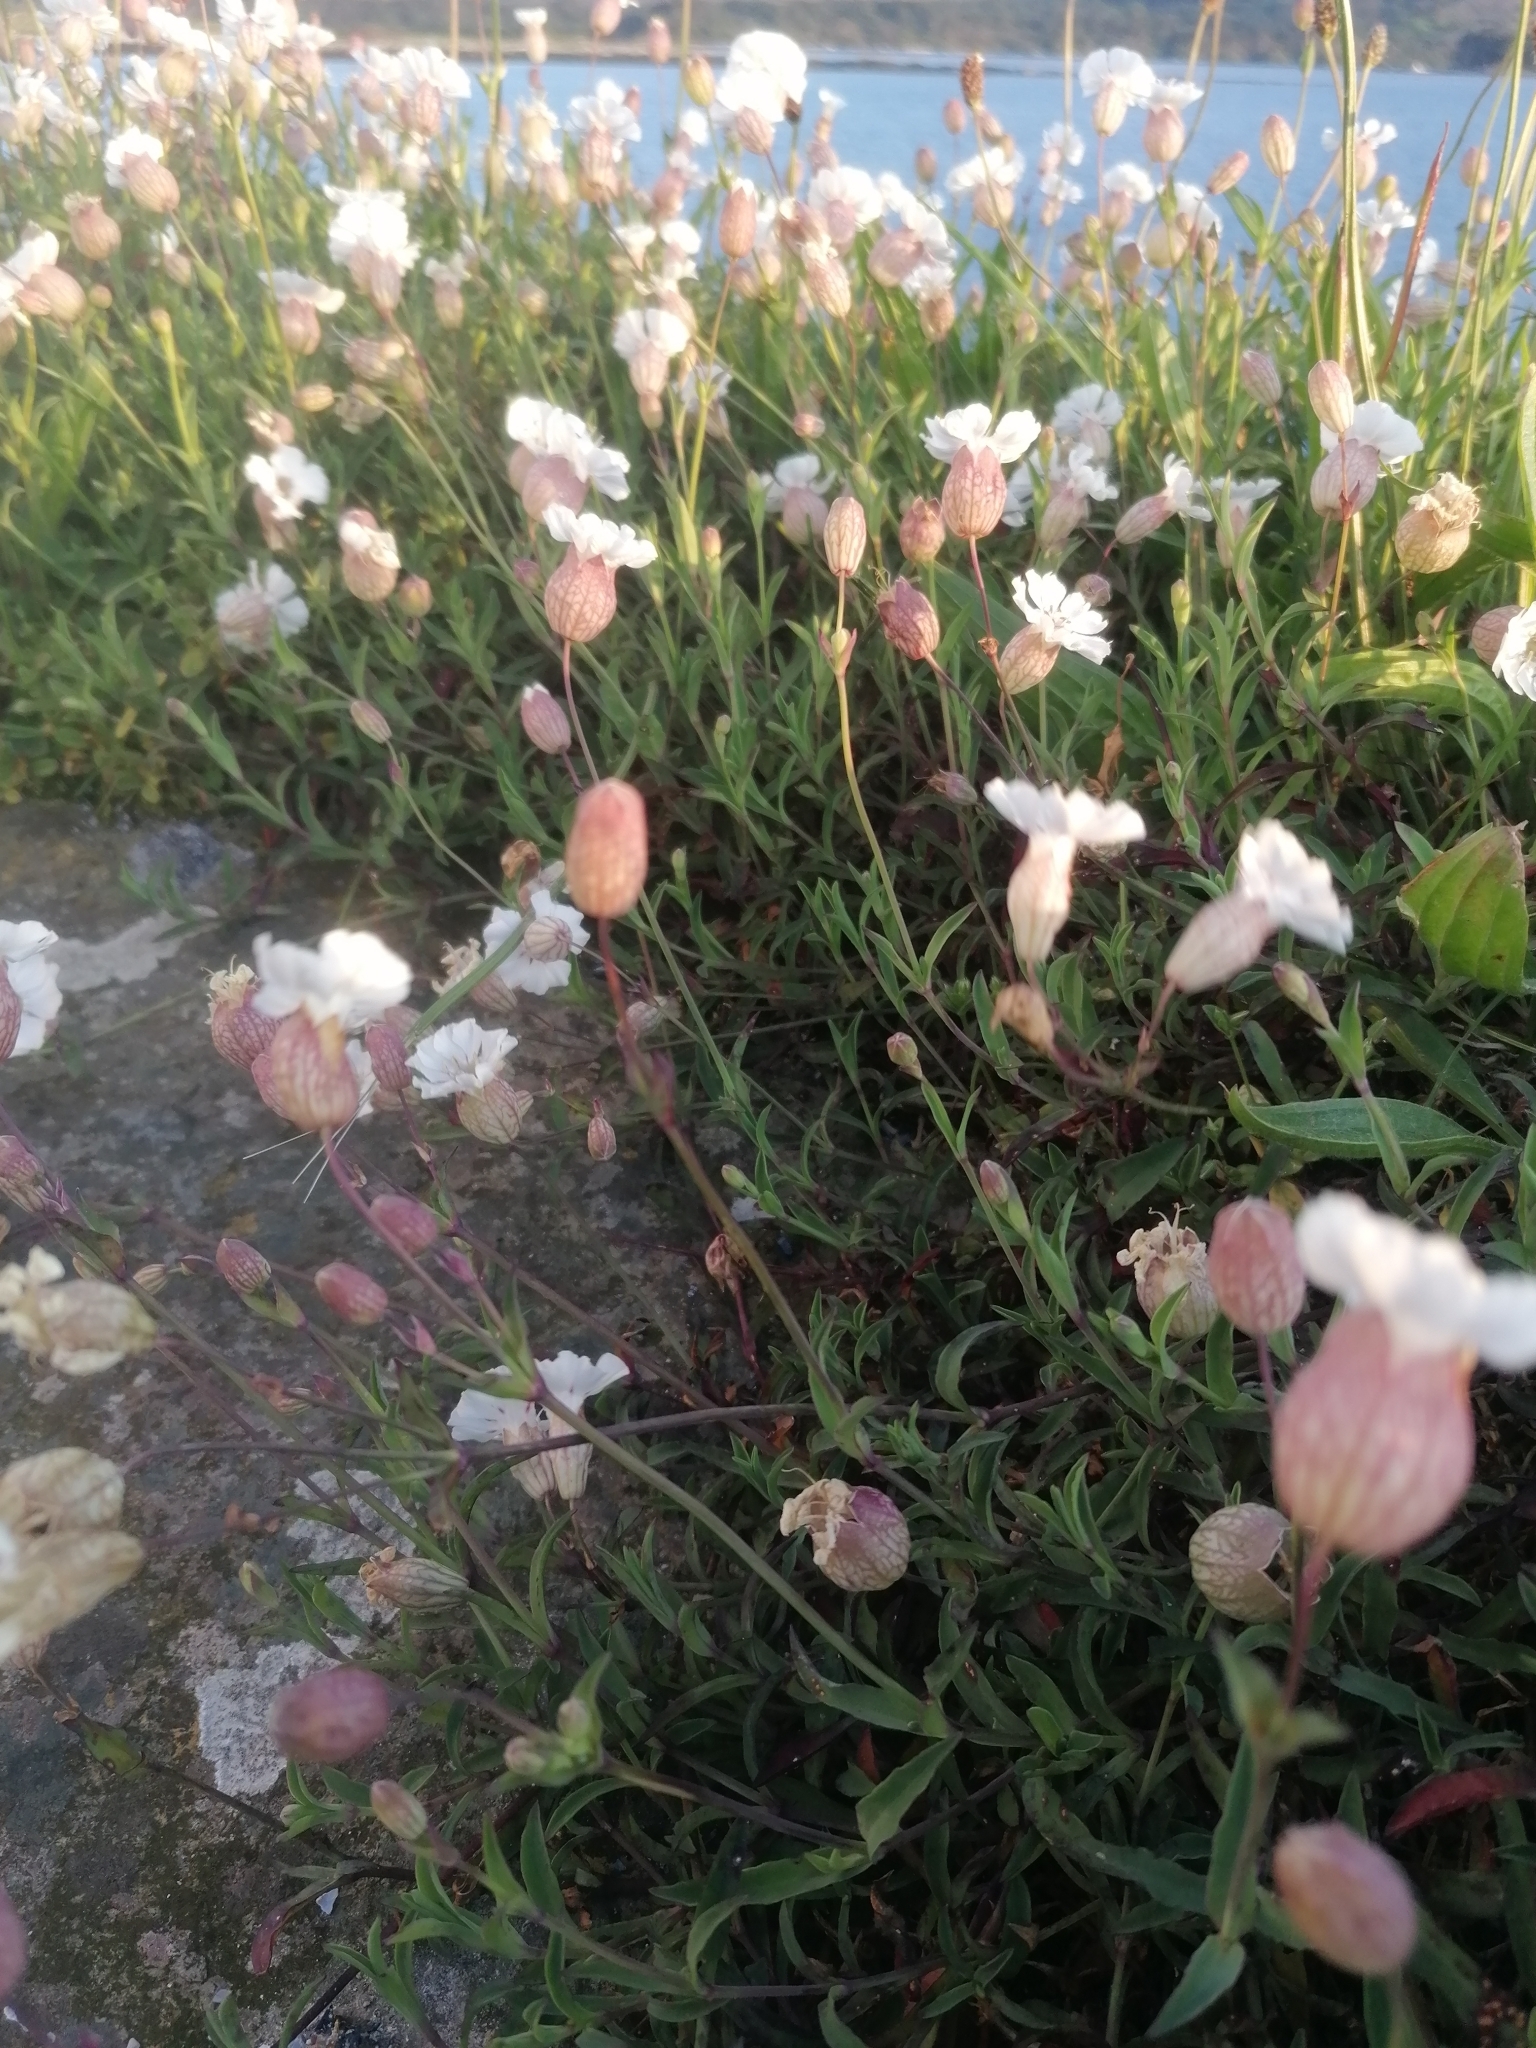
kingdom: Plantae
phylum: Tracheophyta
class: Magnoliopsida
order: Caryophyllales
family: Caryophyllaceae
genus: Silene
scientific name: Silene uniflora
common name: Sea campion
